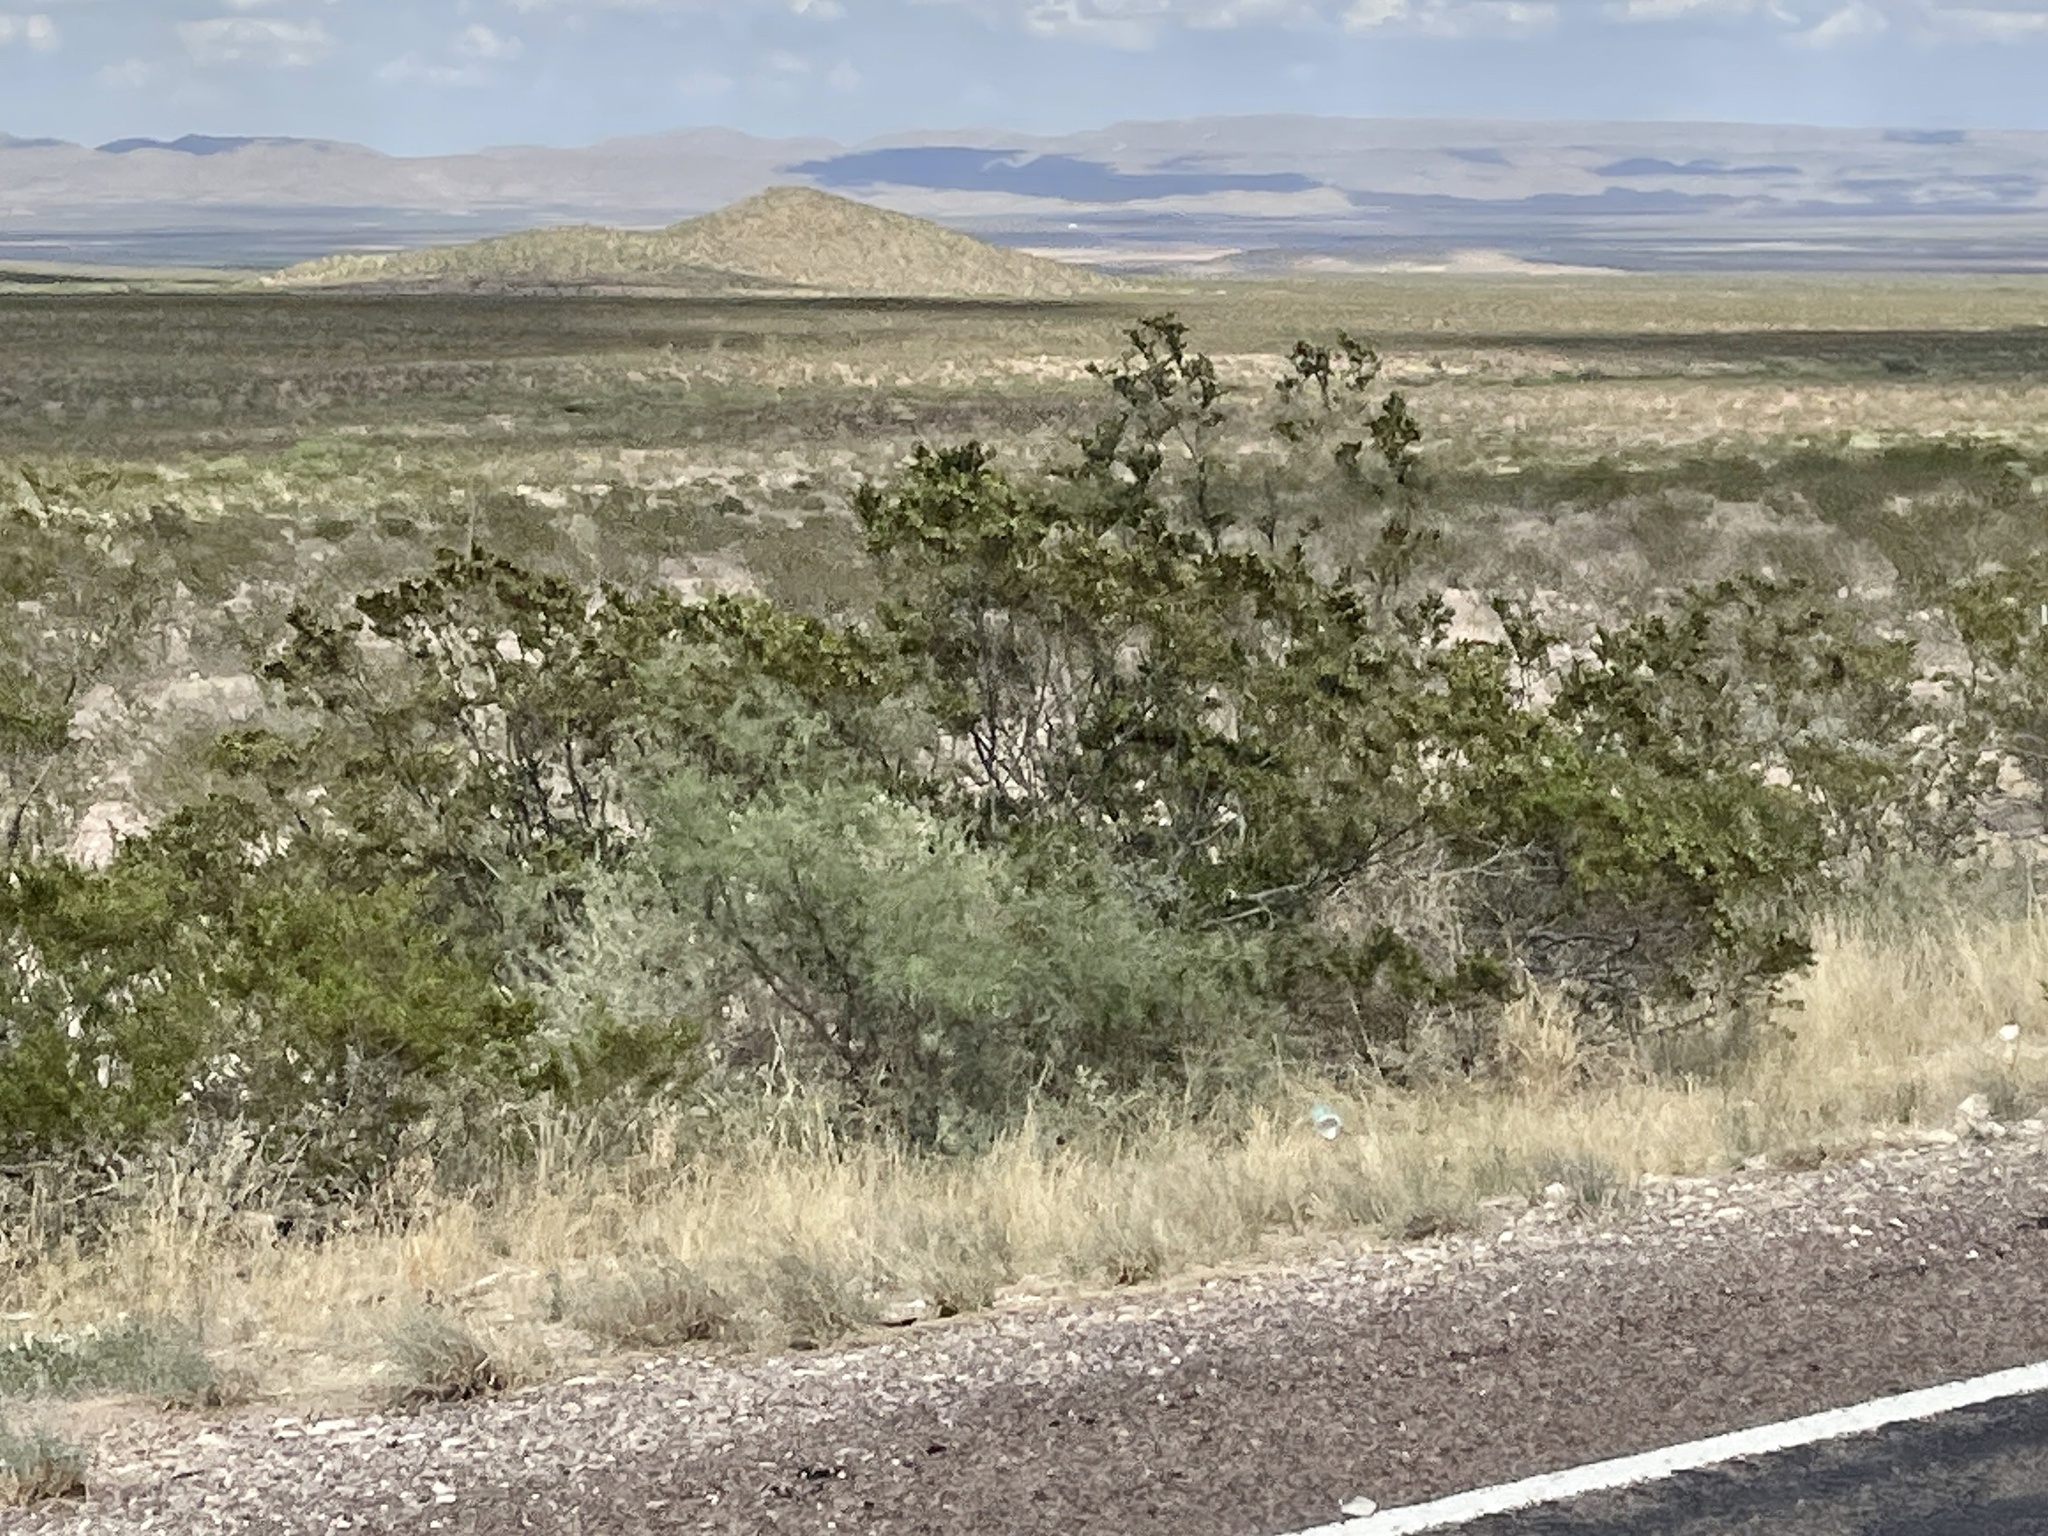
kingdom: Plantae
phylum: Tracheophyta
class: Magnoliopsida
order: Zygophyllales
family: Zygophyllaceae
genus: Larrea
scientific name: Larrea tridentata
